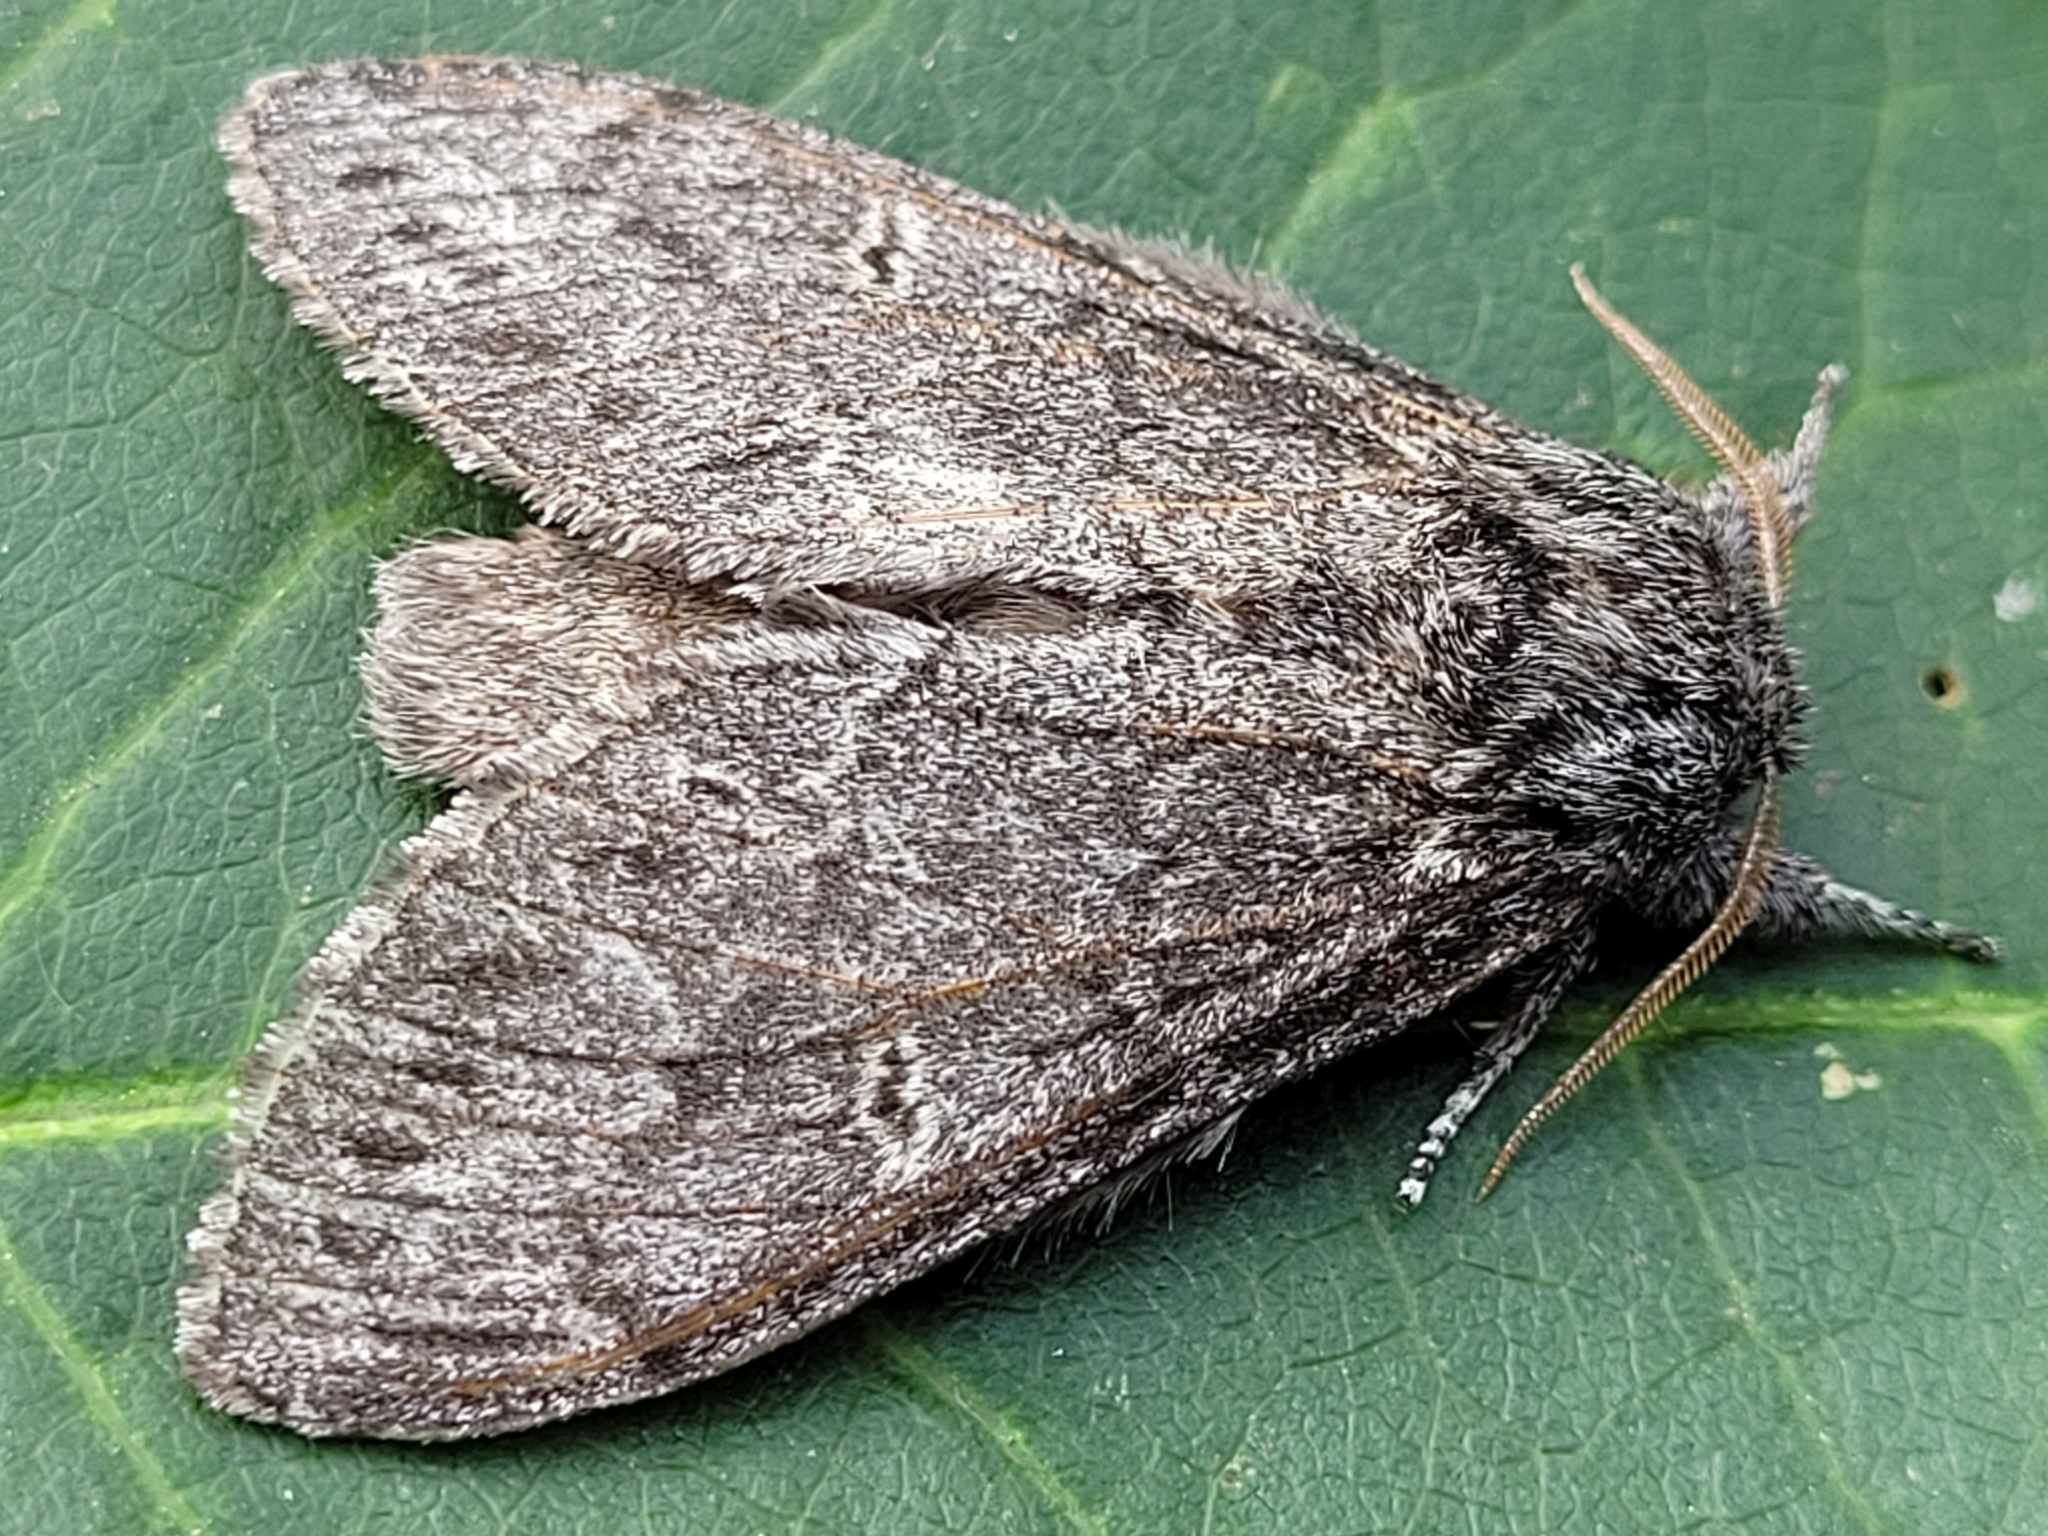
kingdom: Animalia
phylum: Arthropoda
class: Insecta
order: Lepidoptera
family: Notodontidae
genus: Notodonta
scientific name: Notodonta torva
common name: Large dark prominent
